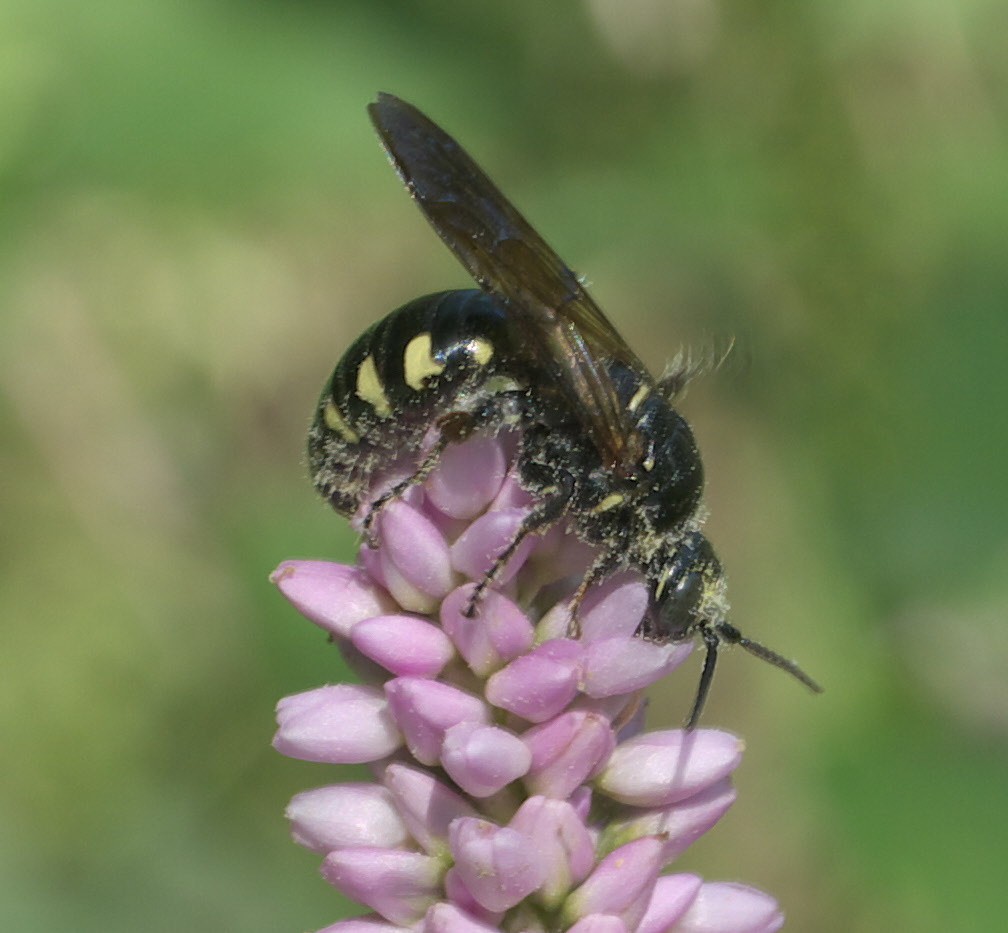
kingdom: Animalia
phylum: Arthropoda
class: Insecta
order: Hymenoptera
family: Tiphiidae
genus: Myzinum
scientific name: Myzinum obscurum
